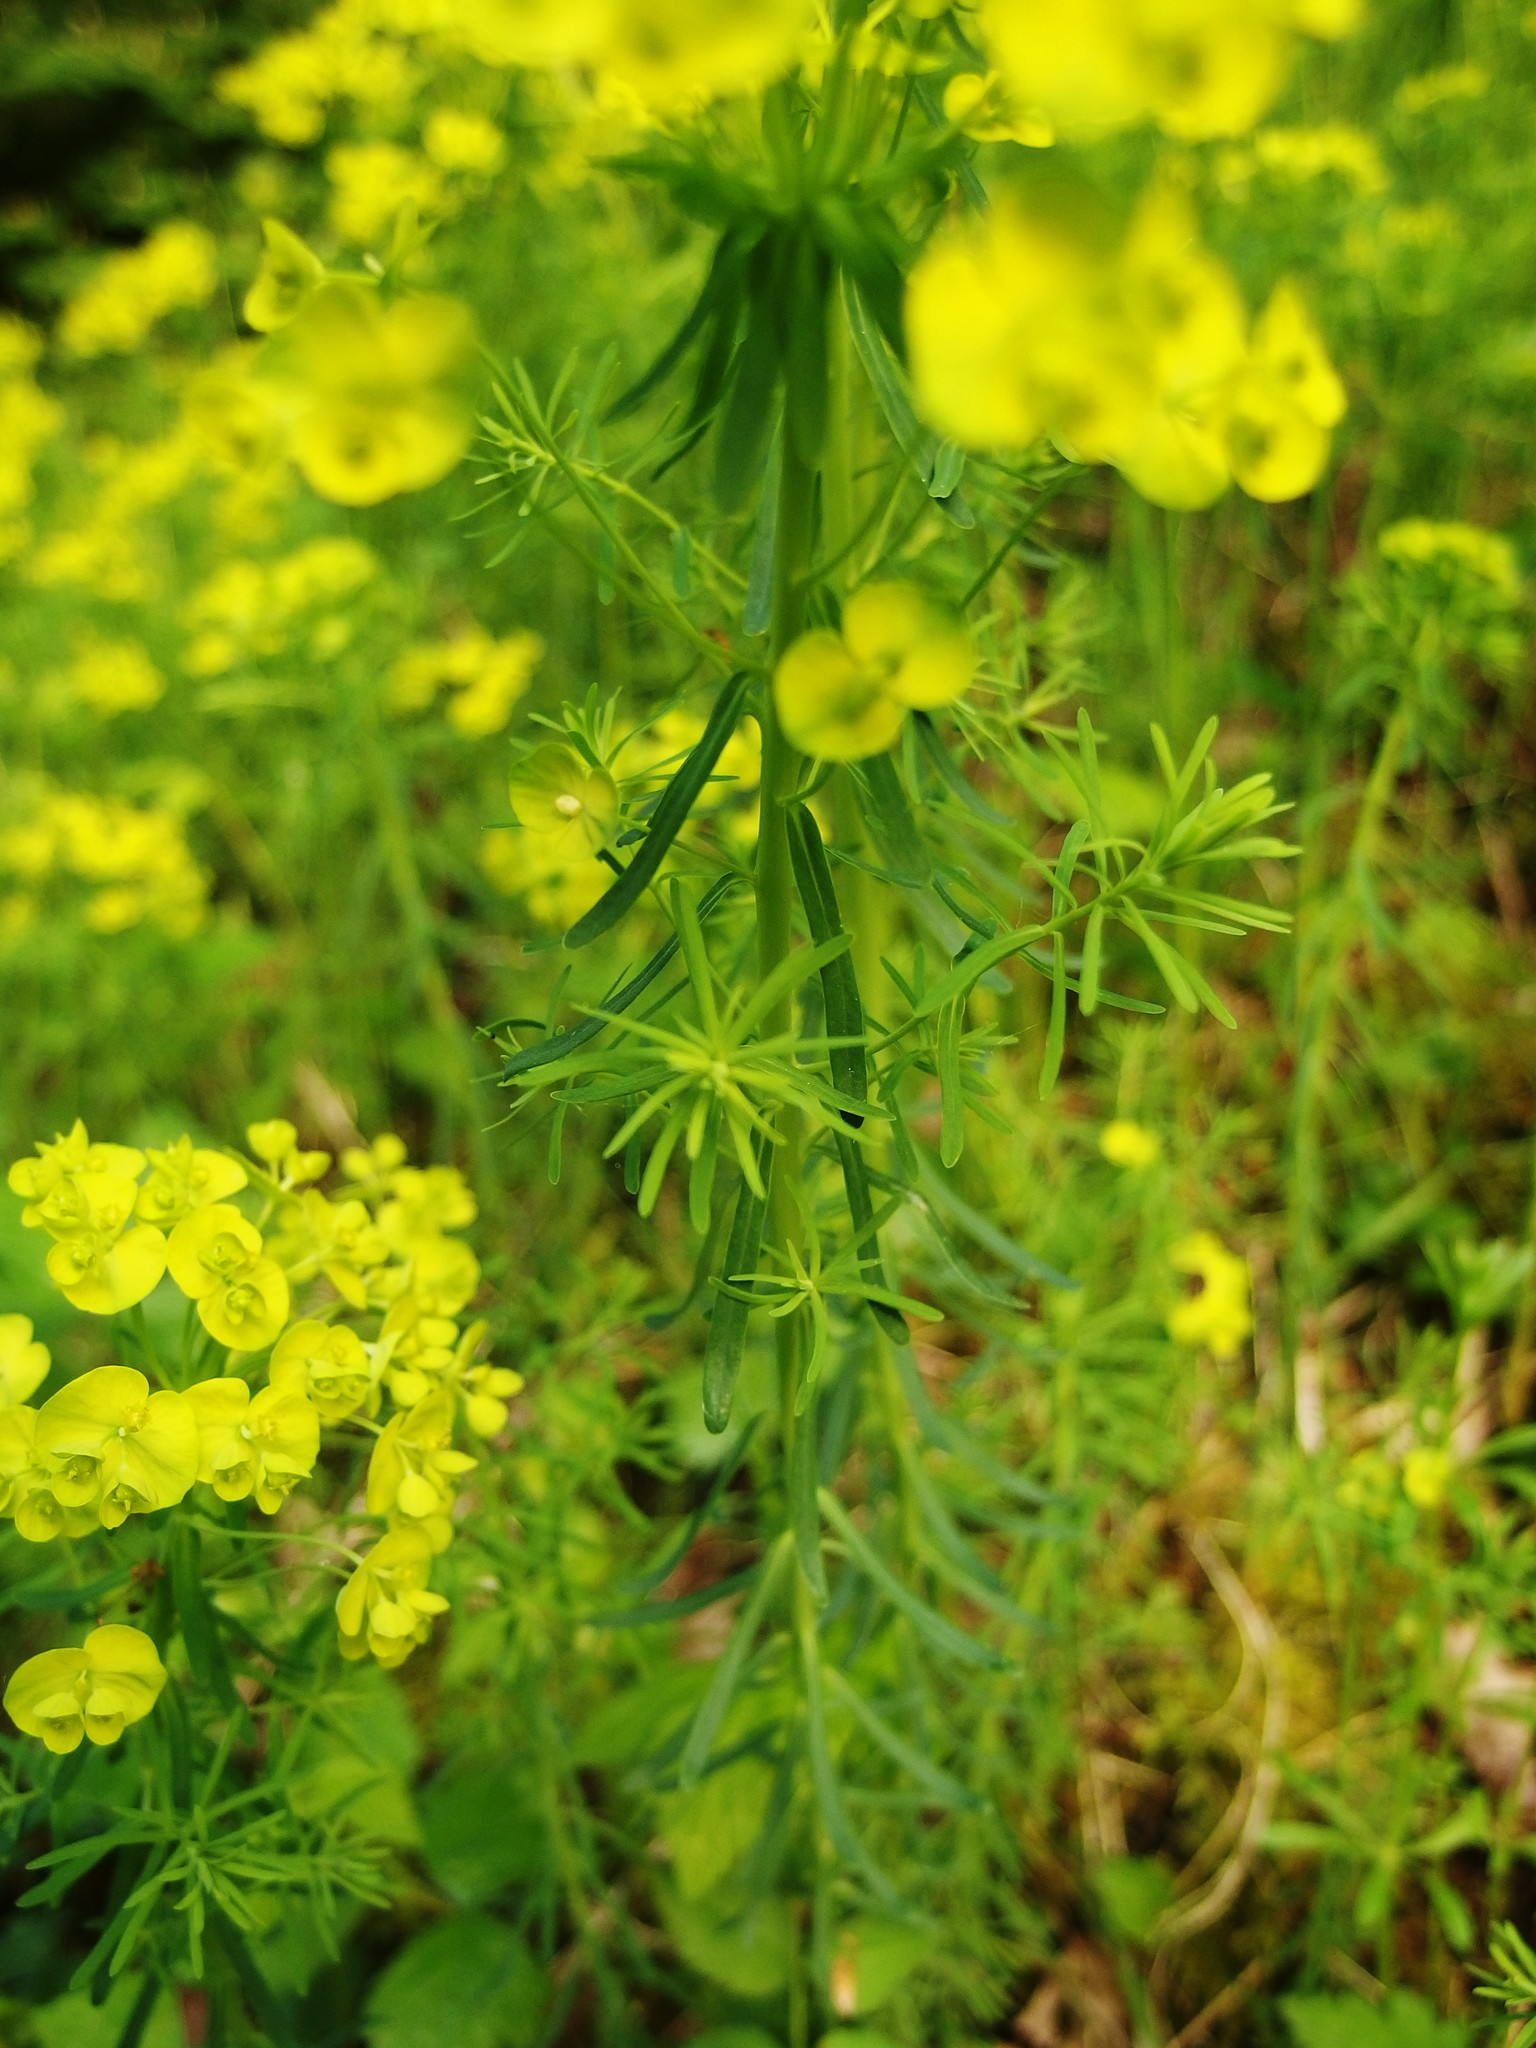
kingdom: Plantae
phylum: Tracheophyta
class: Magnoliopsida
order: Malpighiales
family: Euphorbiaceae
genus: Euphorbia
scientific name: Euphorbia cyparissias
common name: Cypress spurge
